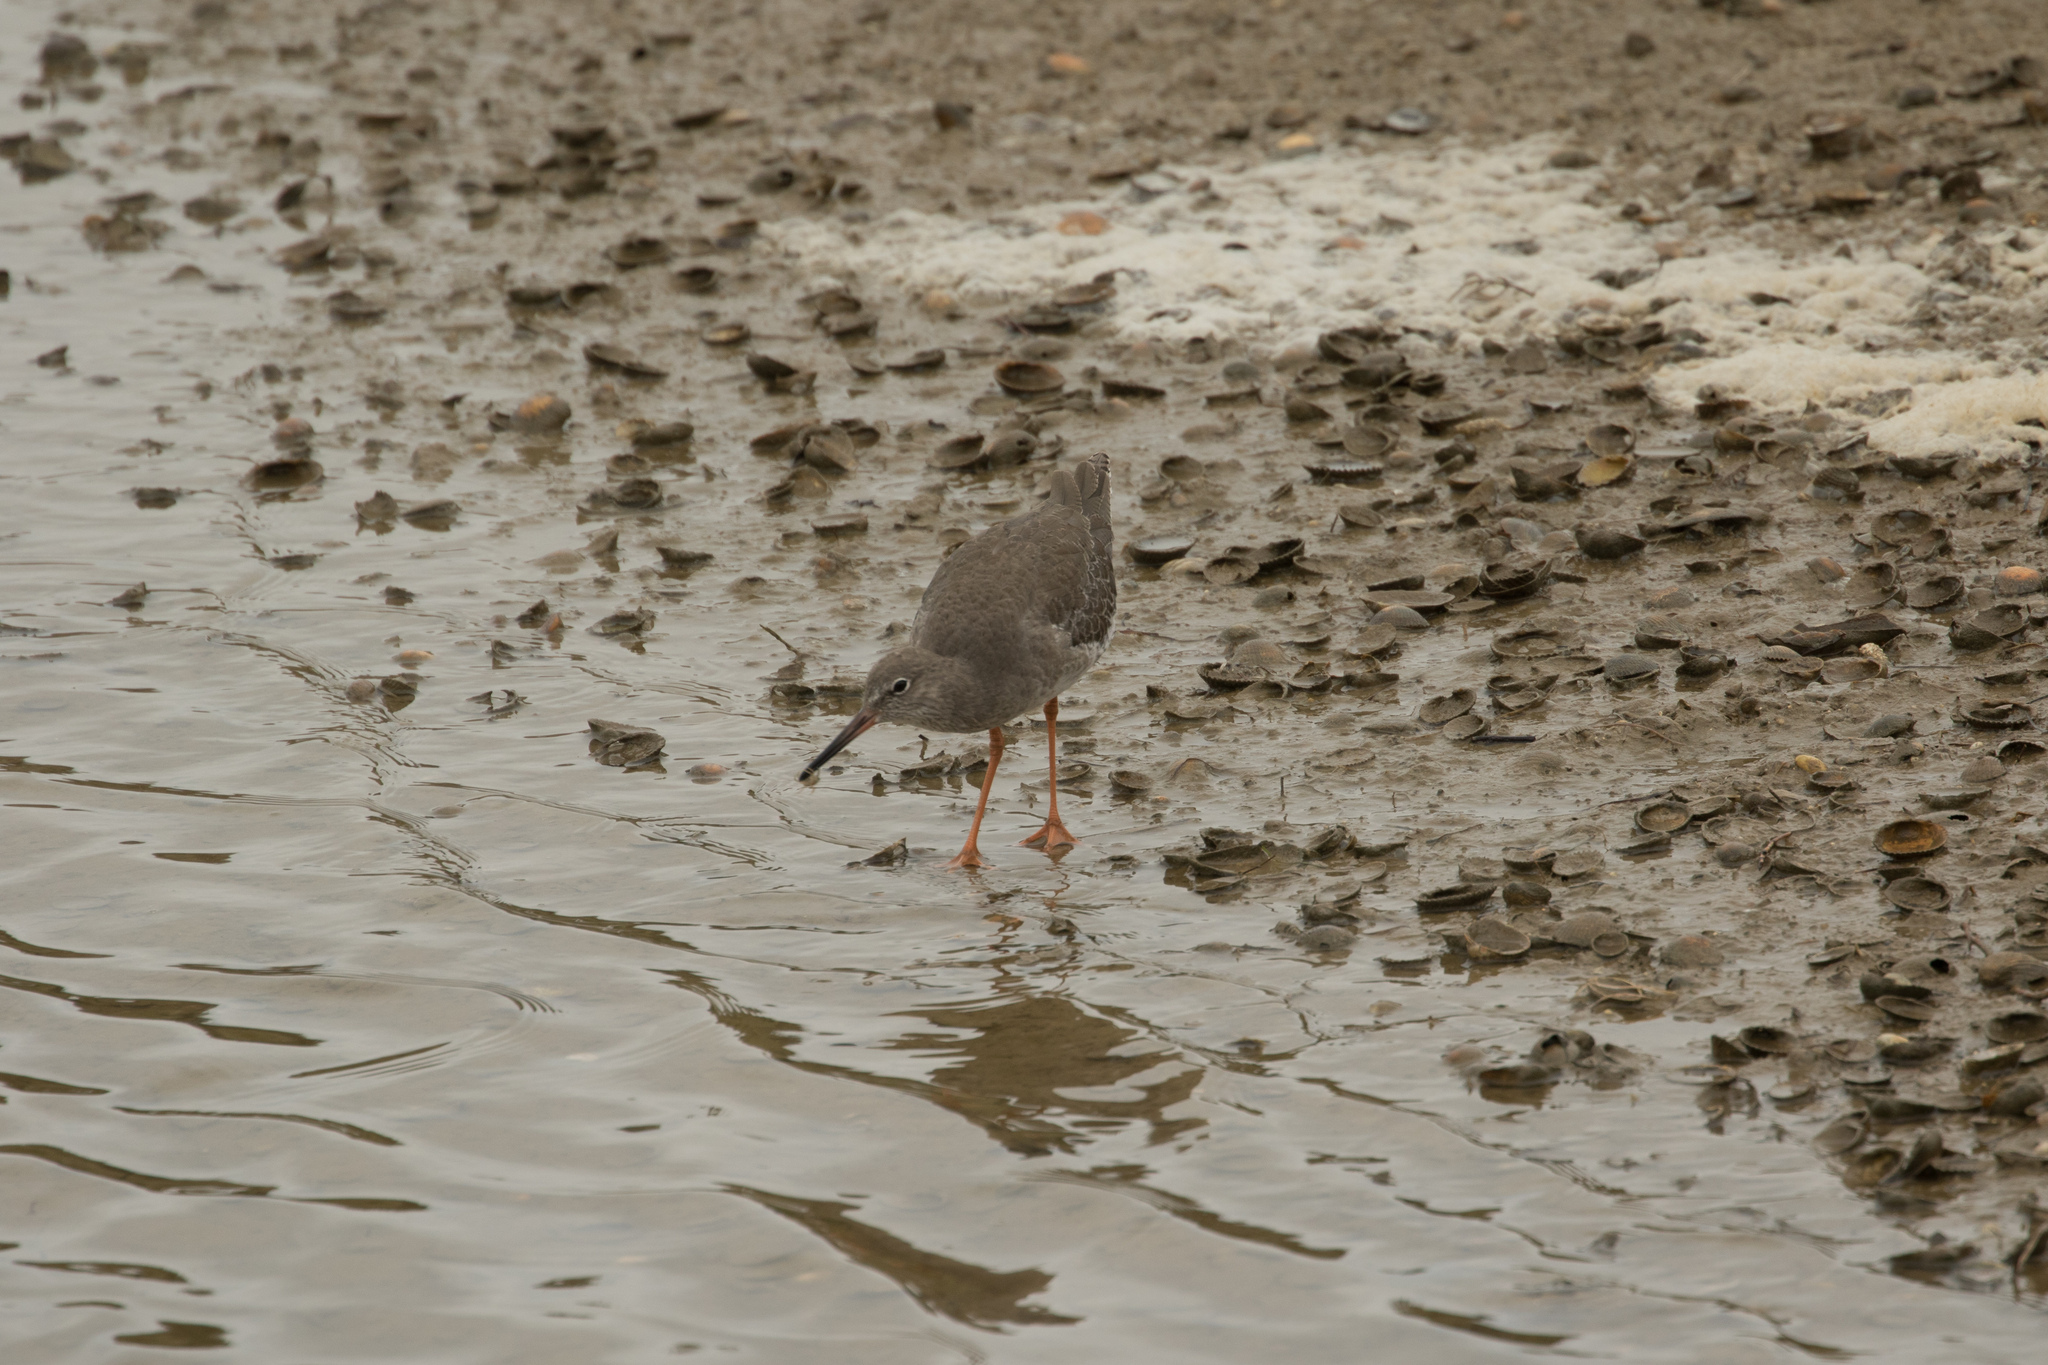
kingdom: Animalia
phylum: Chordata
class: Aves
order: Charadriiformes
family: Scolopacidae
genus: Tringa
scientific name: Tringa totanus
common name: Common redshank
